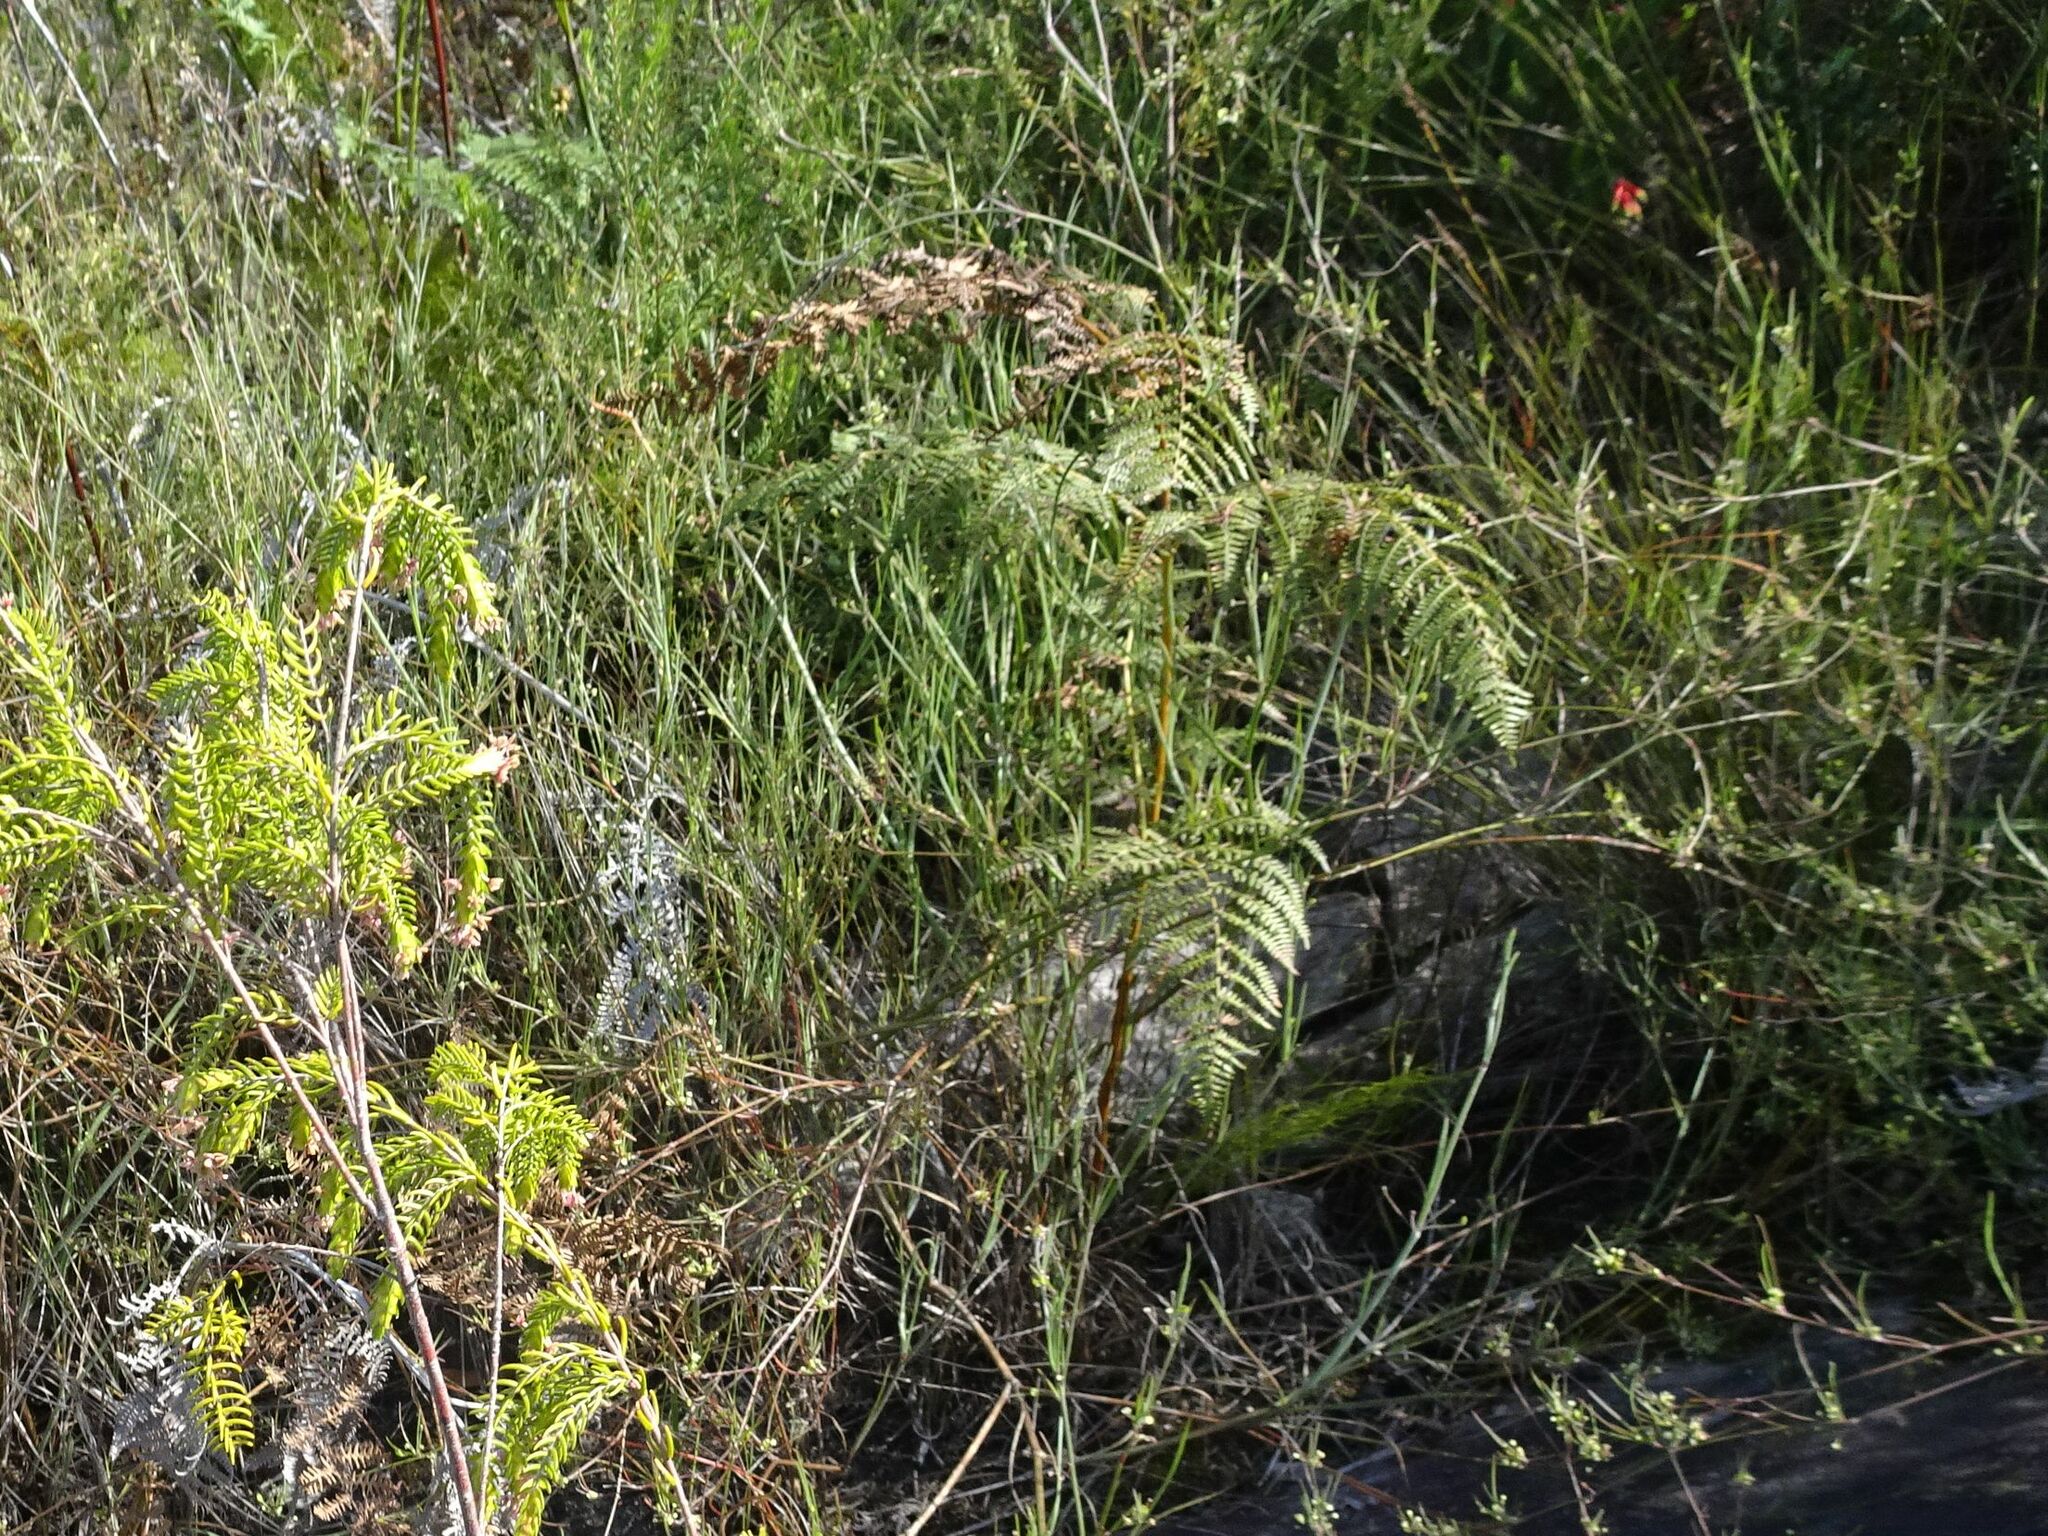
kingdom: Plantae
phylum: Tracheophyta
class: Polypodiopsida
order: Polypodiales
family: Dennstaedtiaceae
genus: Pteridium
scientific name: Pteridium aquilinum
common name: Bracken
